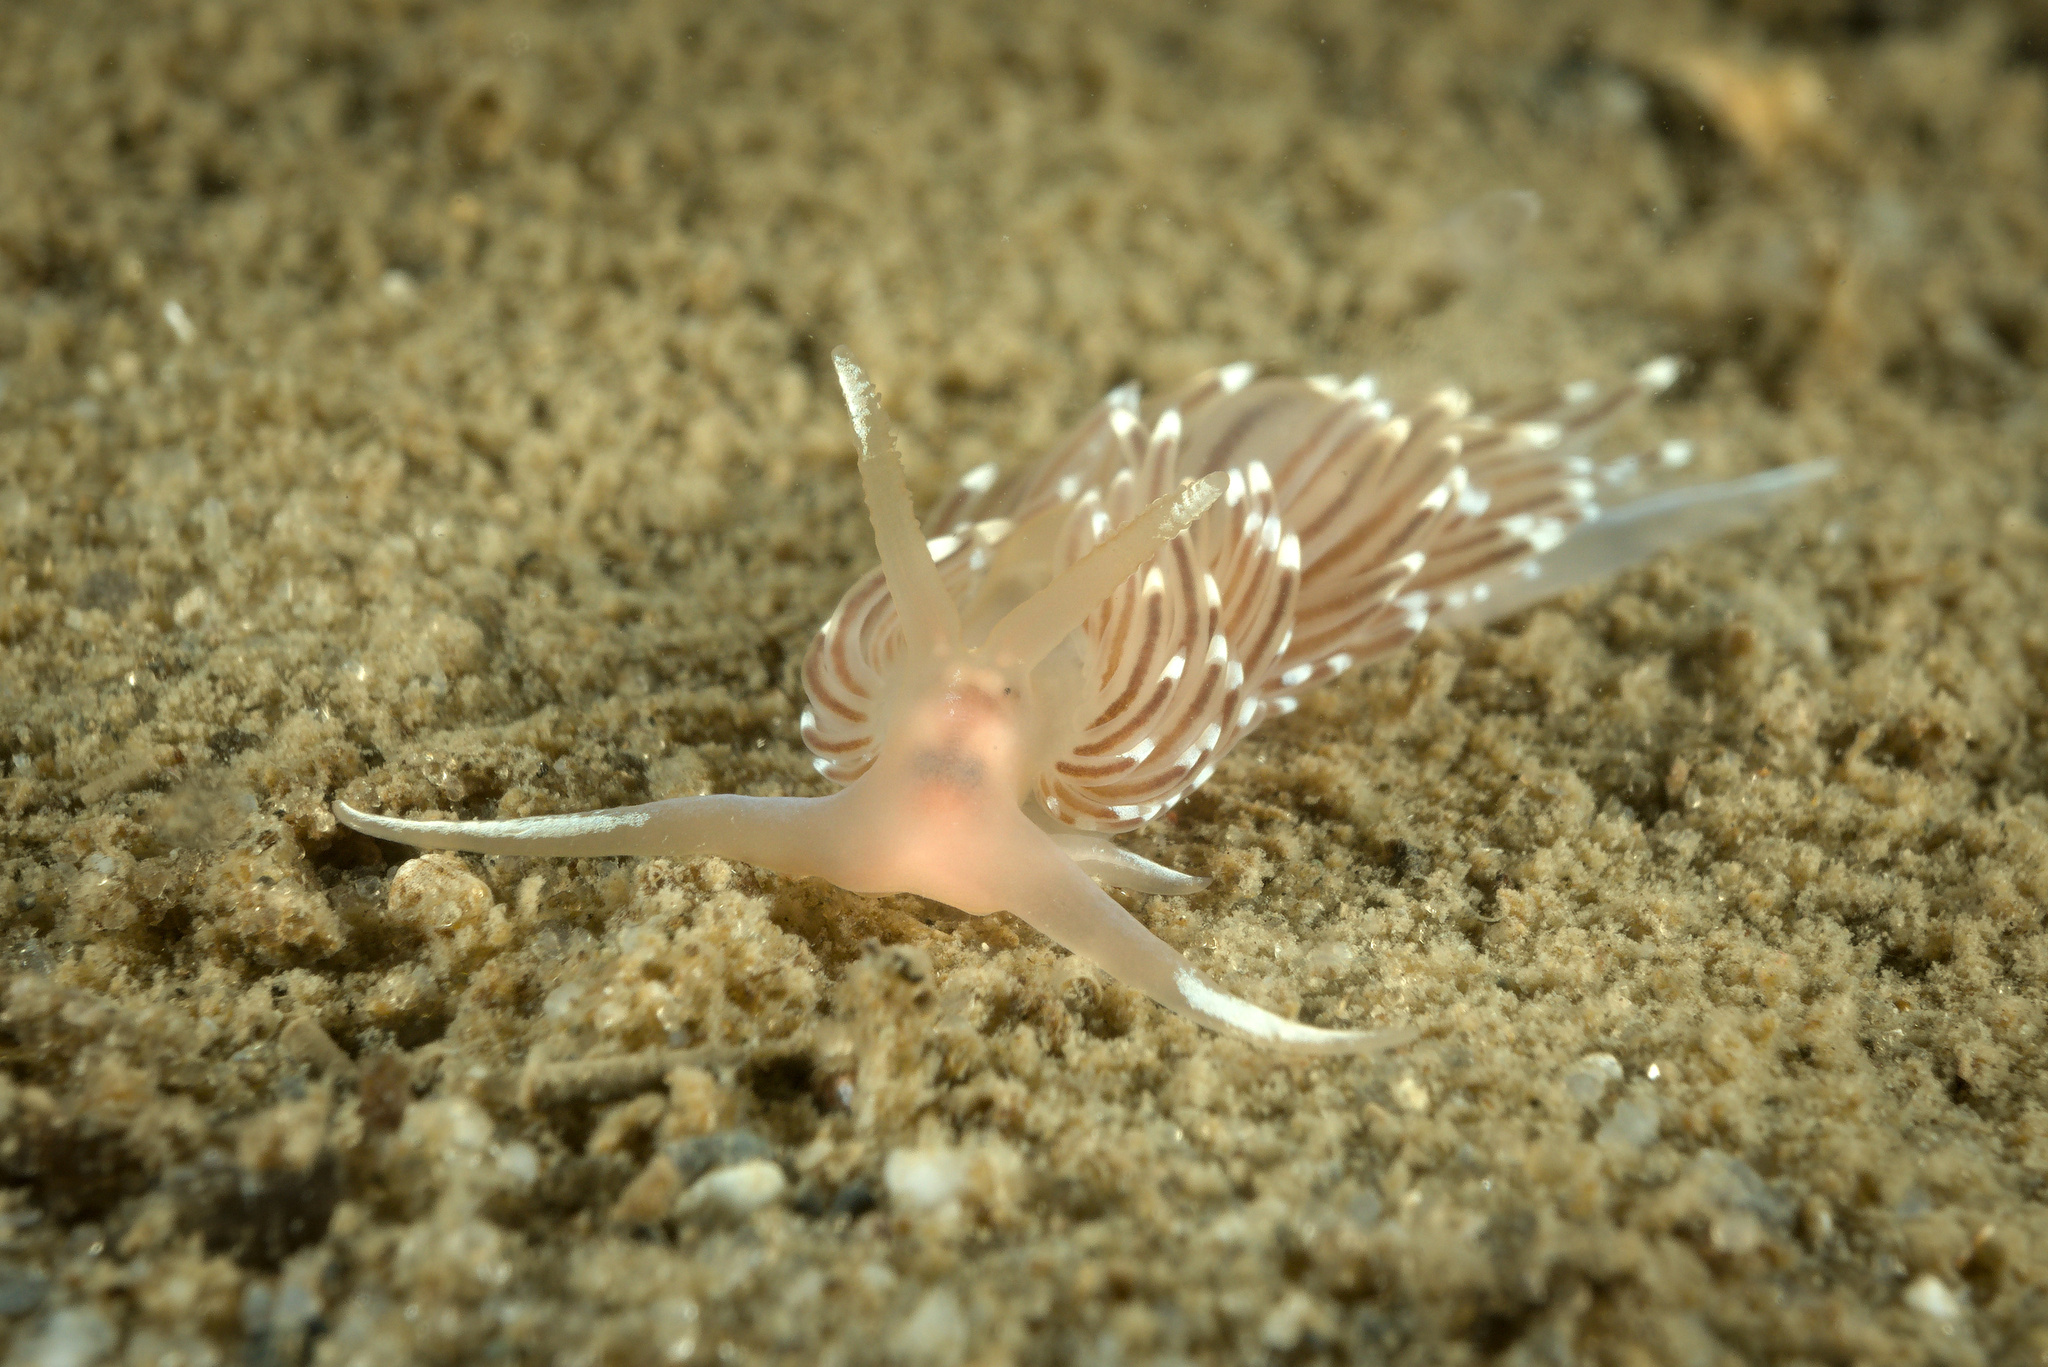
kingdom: Animalia
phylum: Mollusca
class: Gastropoda
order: Nudibranchia
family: Facelinidae
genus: Facelina
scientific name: Facelina bostoniensis
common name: Boston facelina
